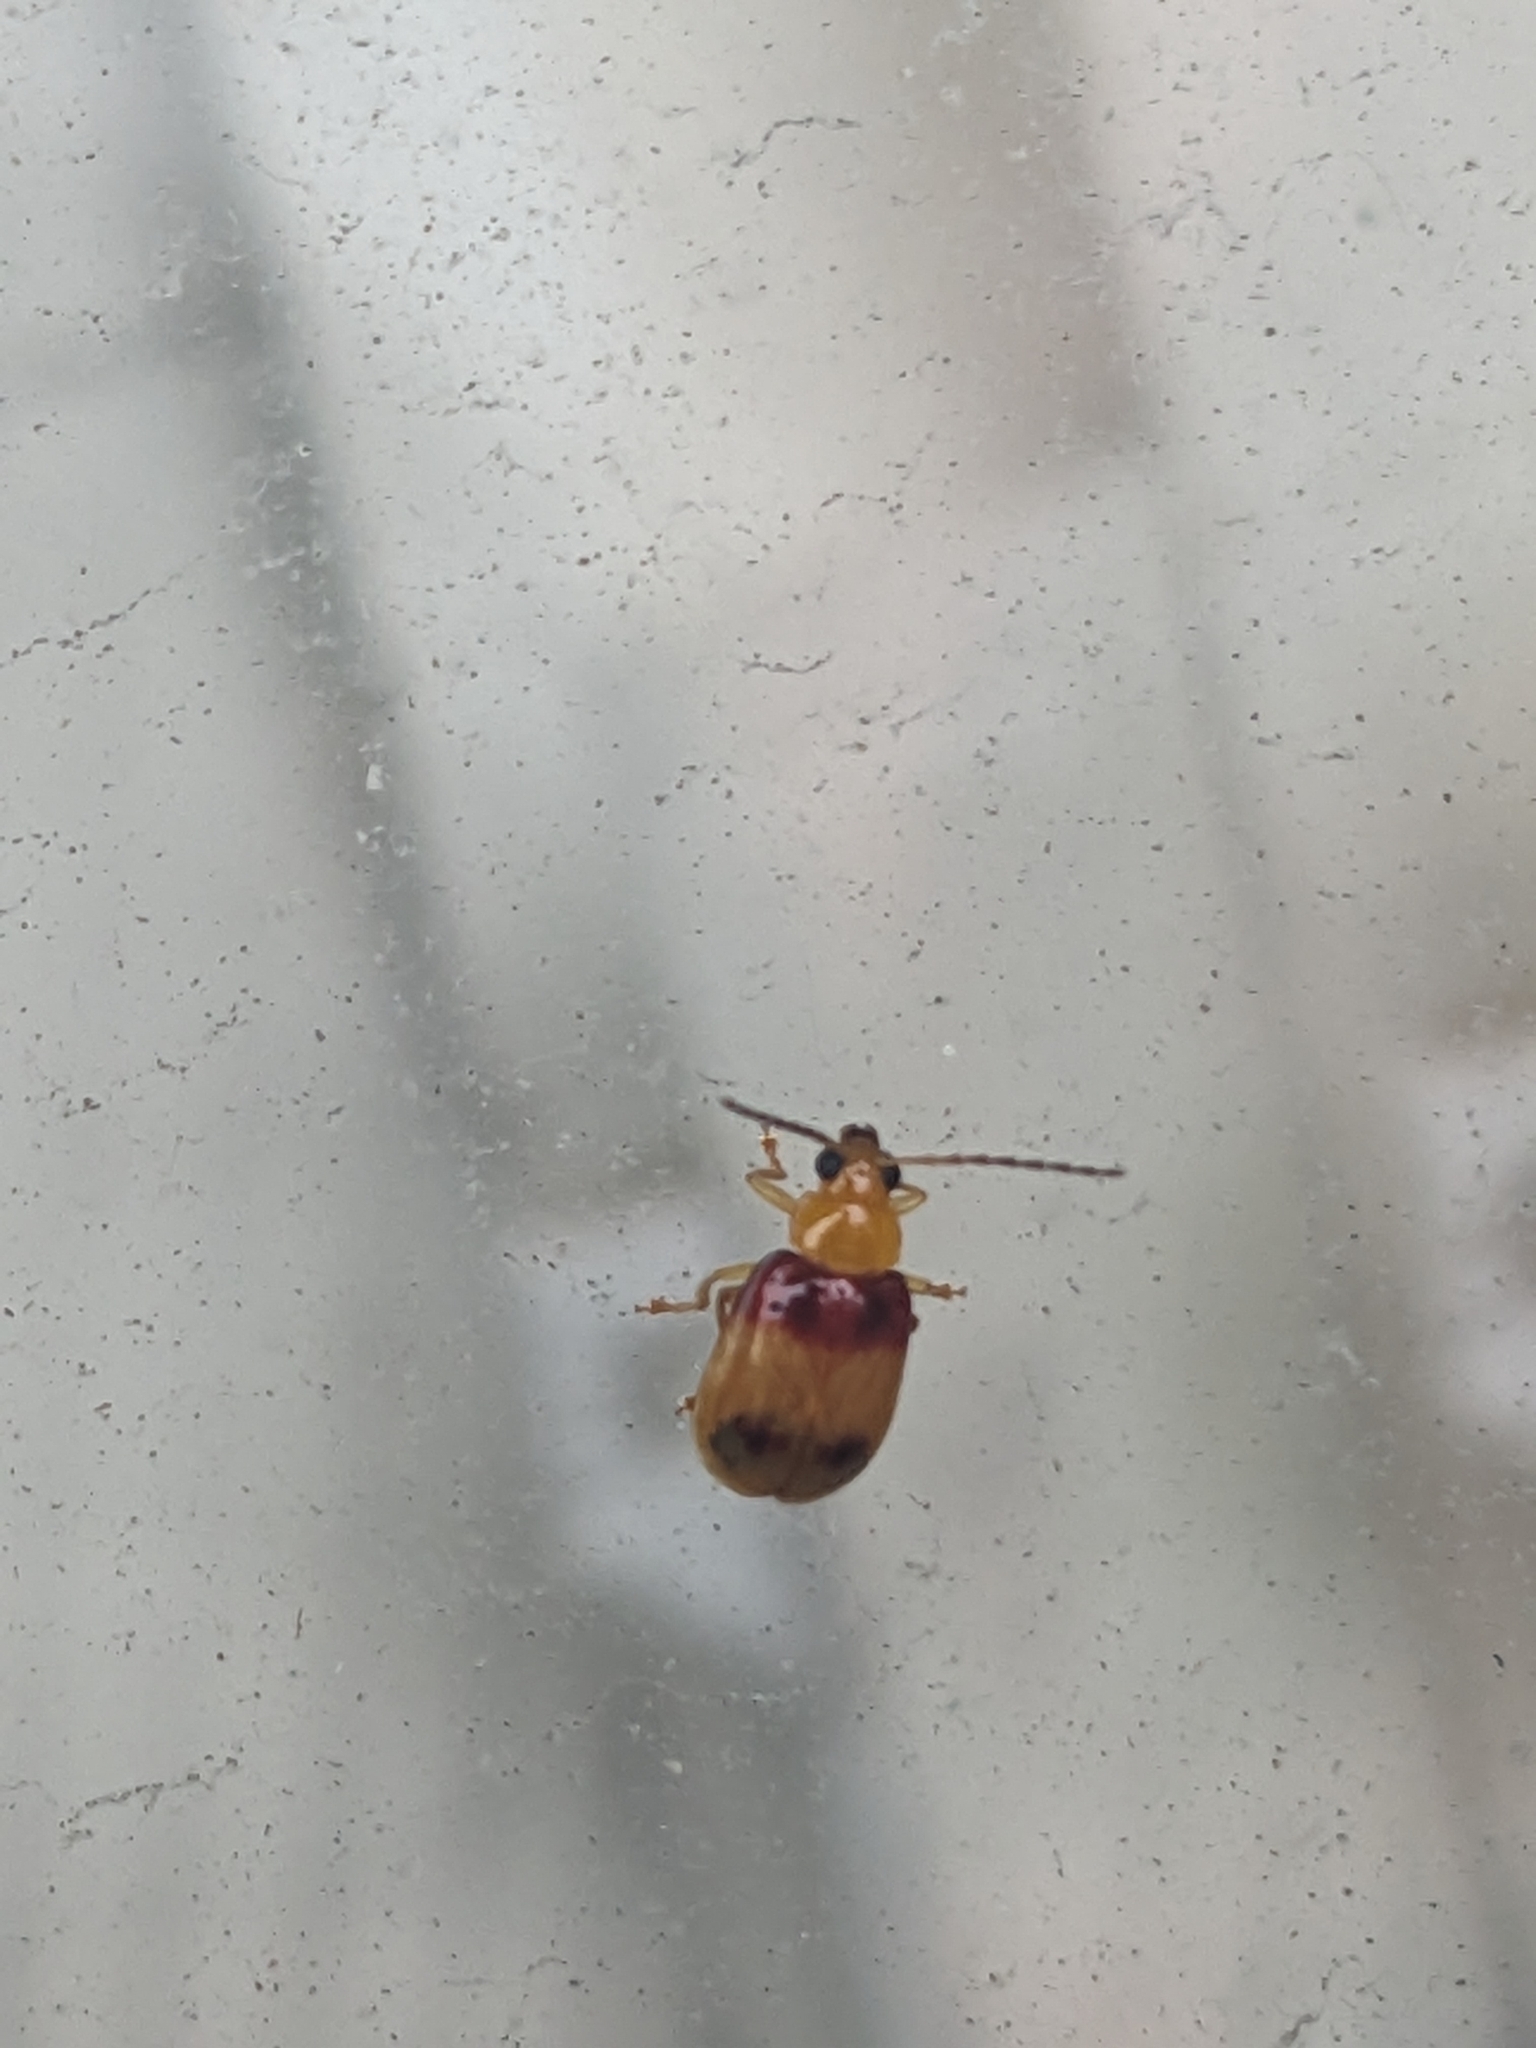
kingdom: Animalia
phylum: Arthropoda
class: Insecta
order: Coleoptera
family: Chrysomelidae
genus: Monolepta
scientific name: Monolepta
